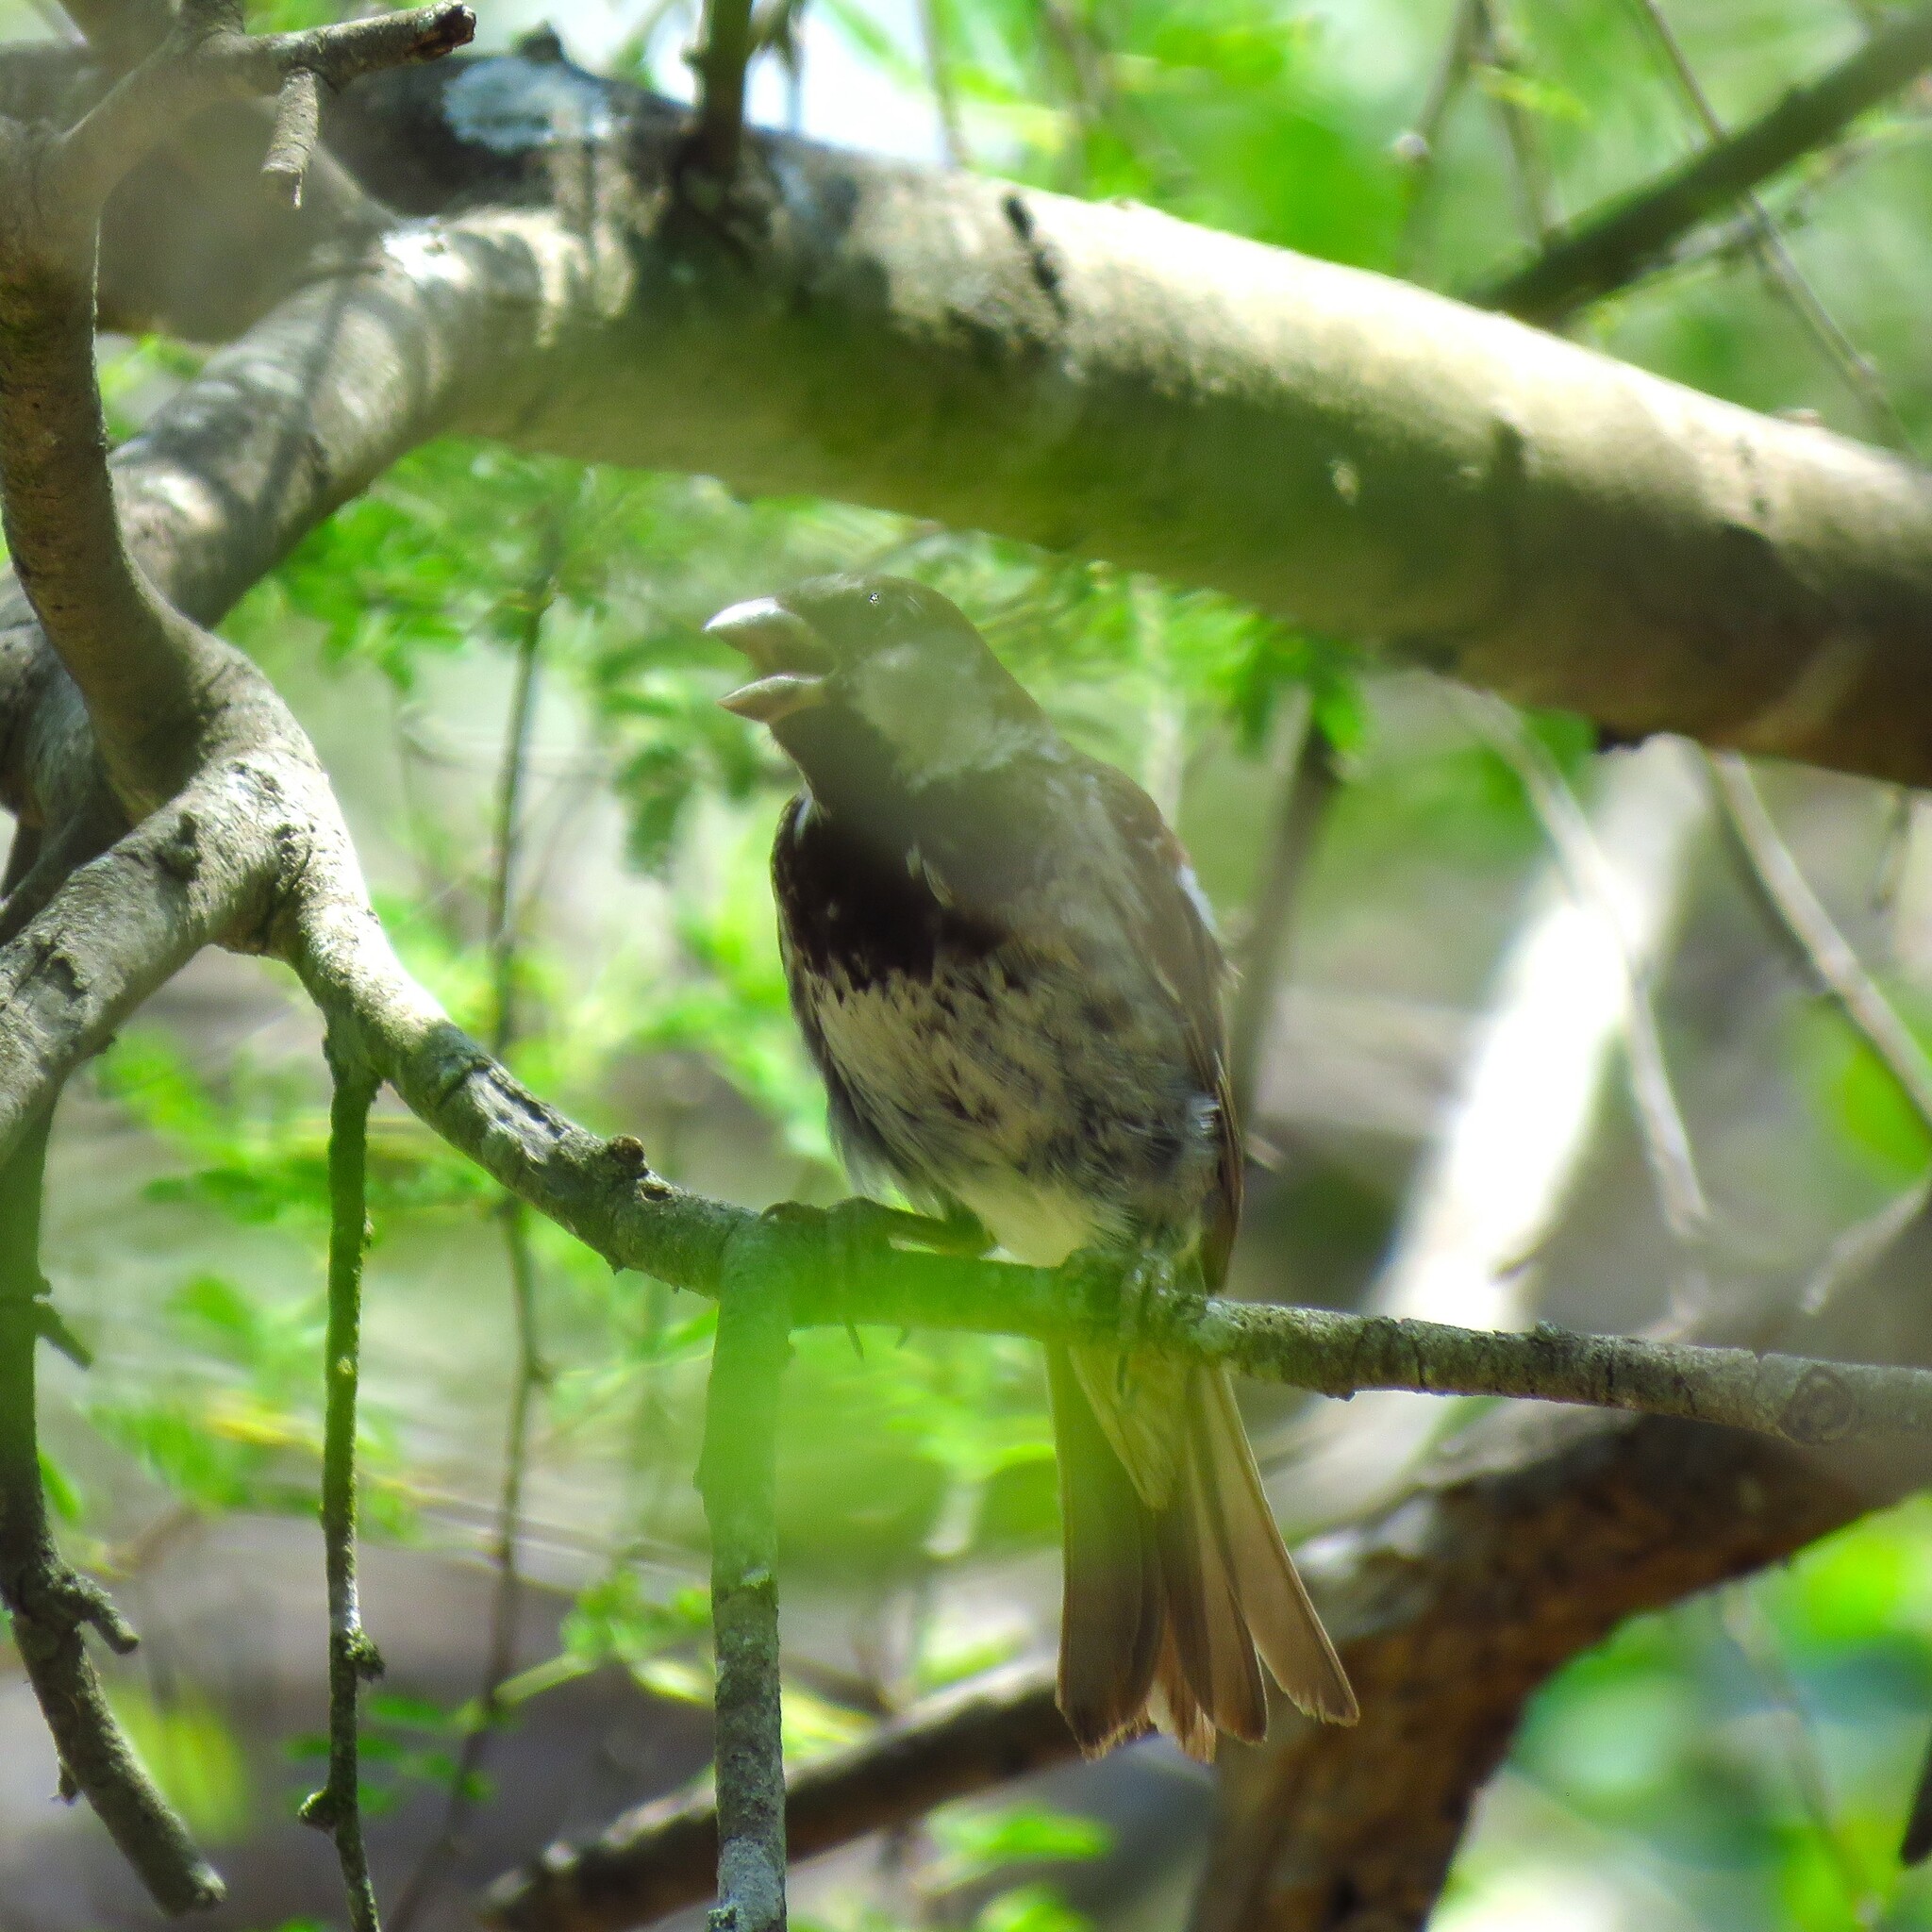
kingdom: Animalia
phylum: Chordata
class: Aves
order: Passeriformes
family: Passeridae
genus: Passer
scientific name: Passer domesticus
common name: House sparrow
